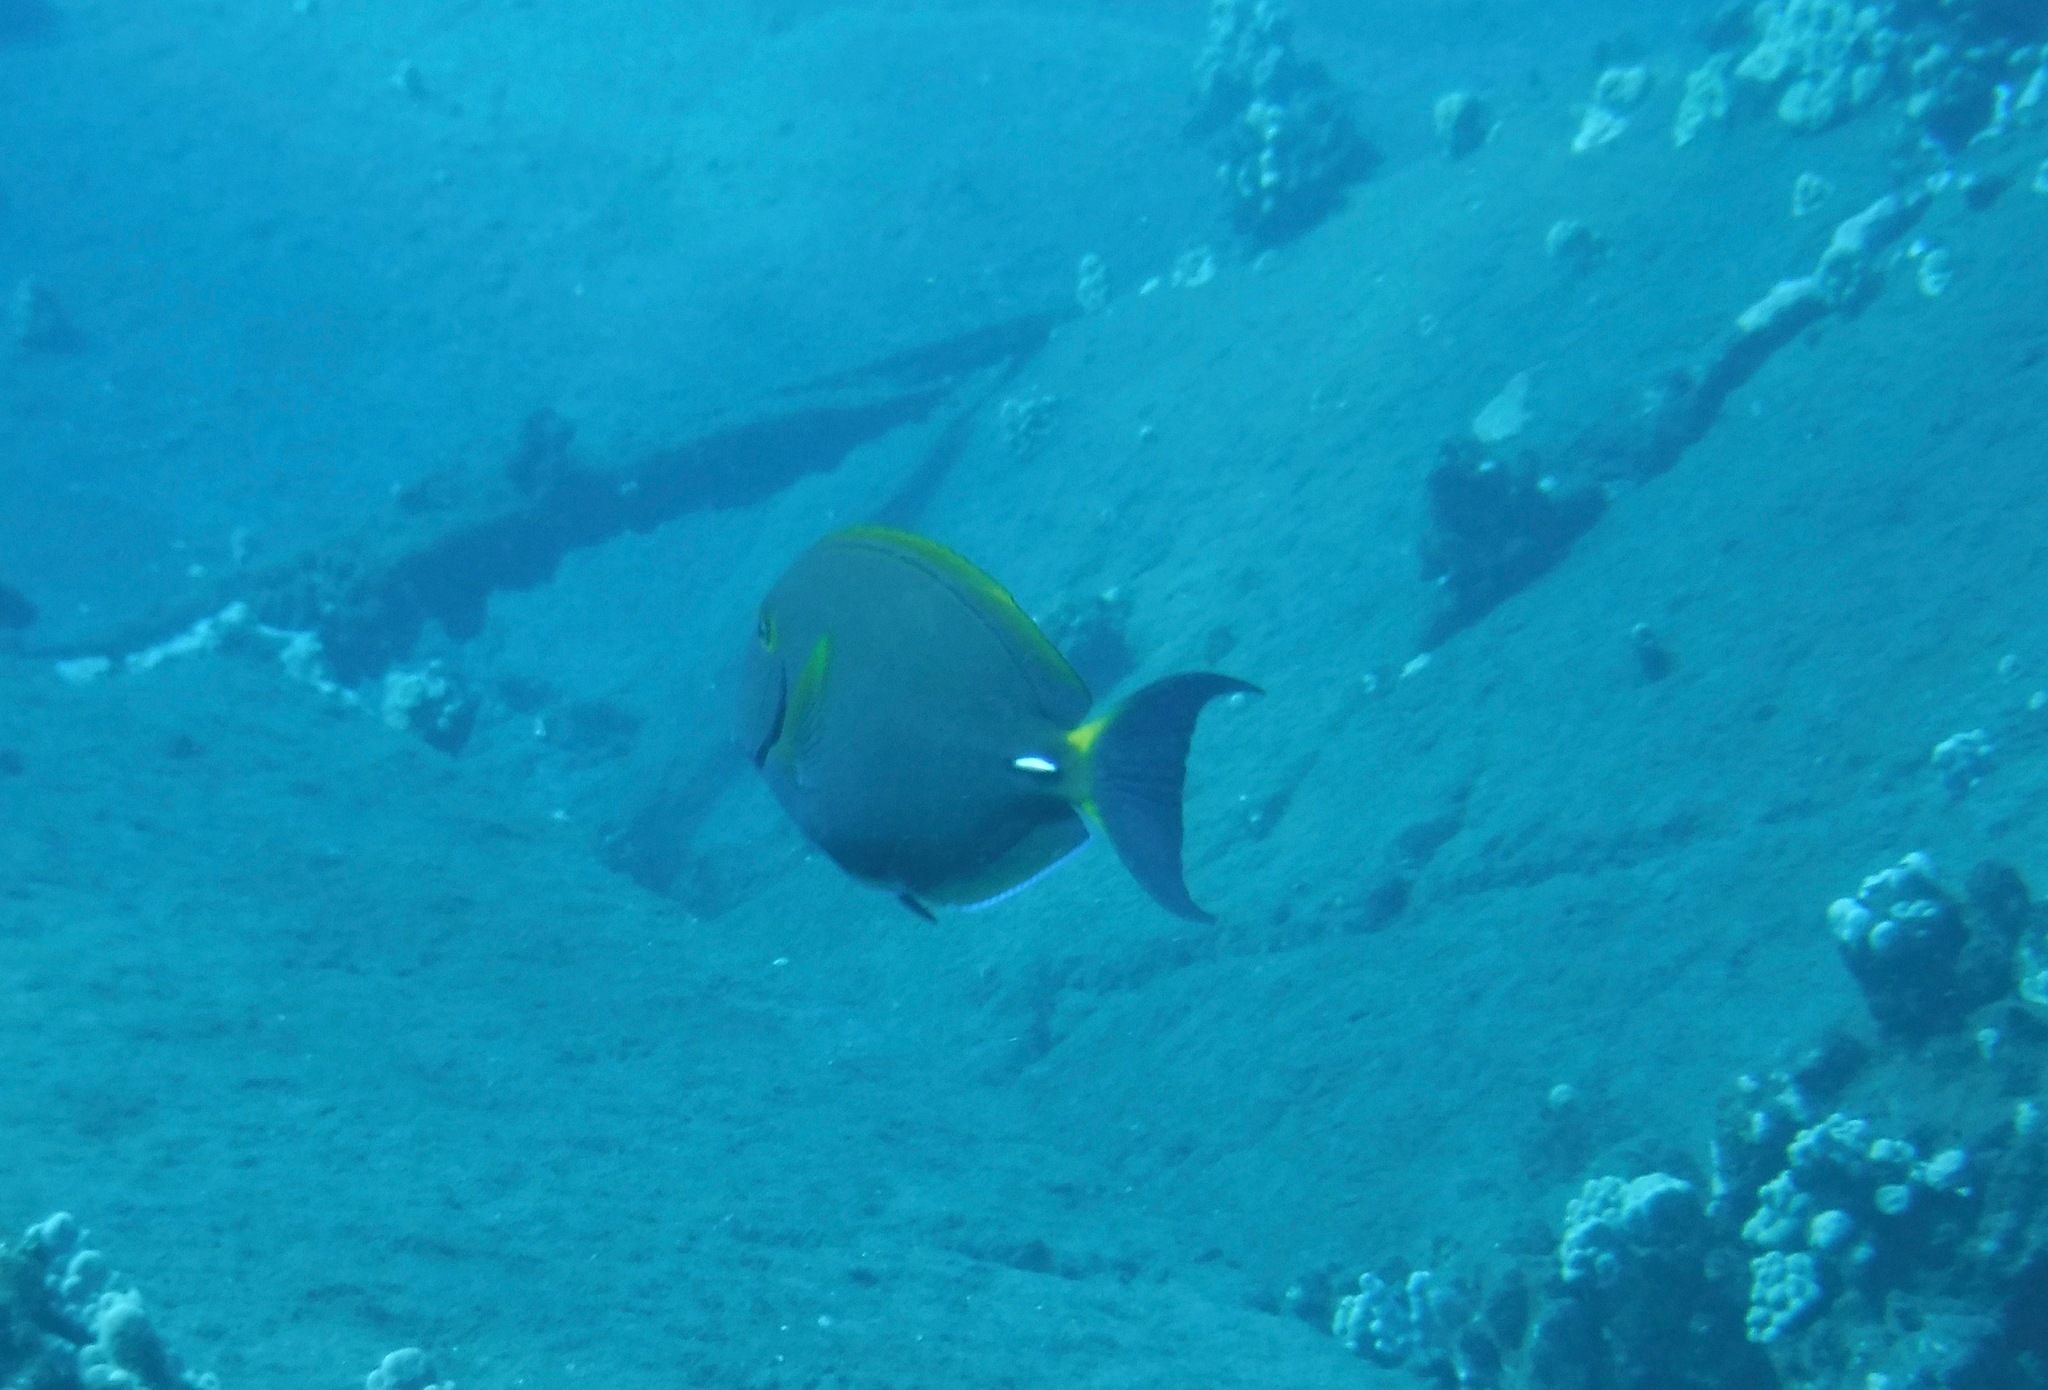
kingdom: Animalia
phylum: Chordata
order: Perciformes
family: Acanthuridae
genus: Acanthurus
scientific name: Acanthurus dussumieri
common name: Dussumier's surgeonfish
